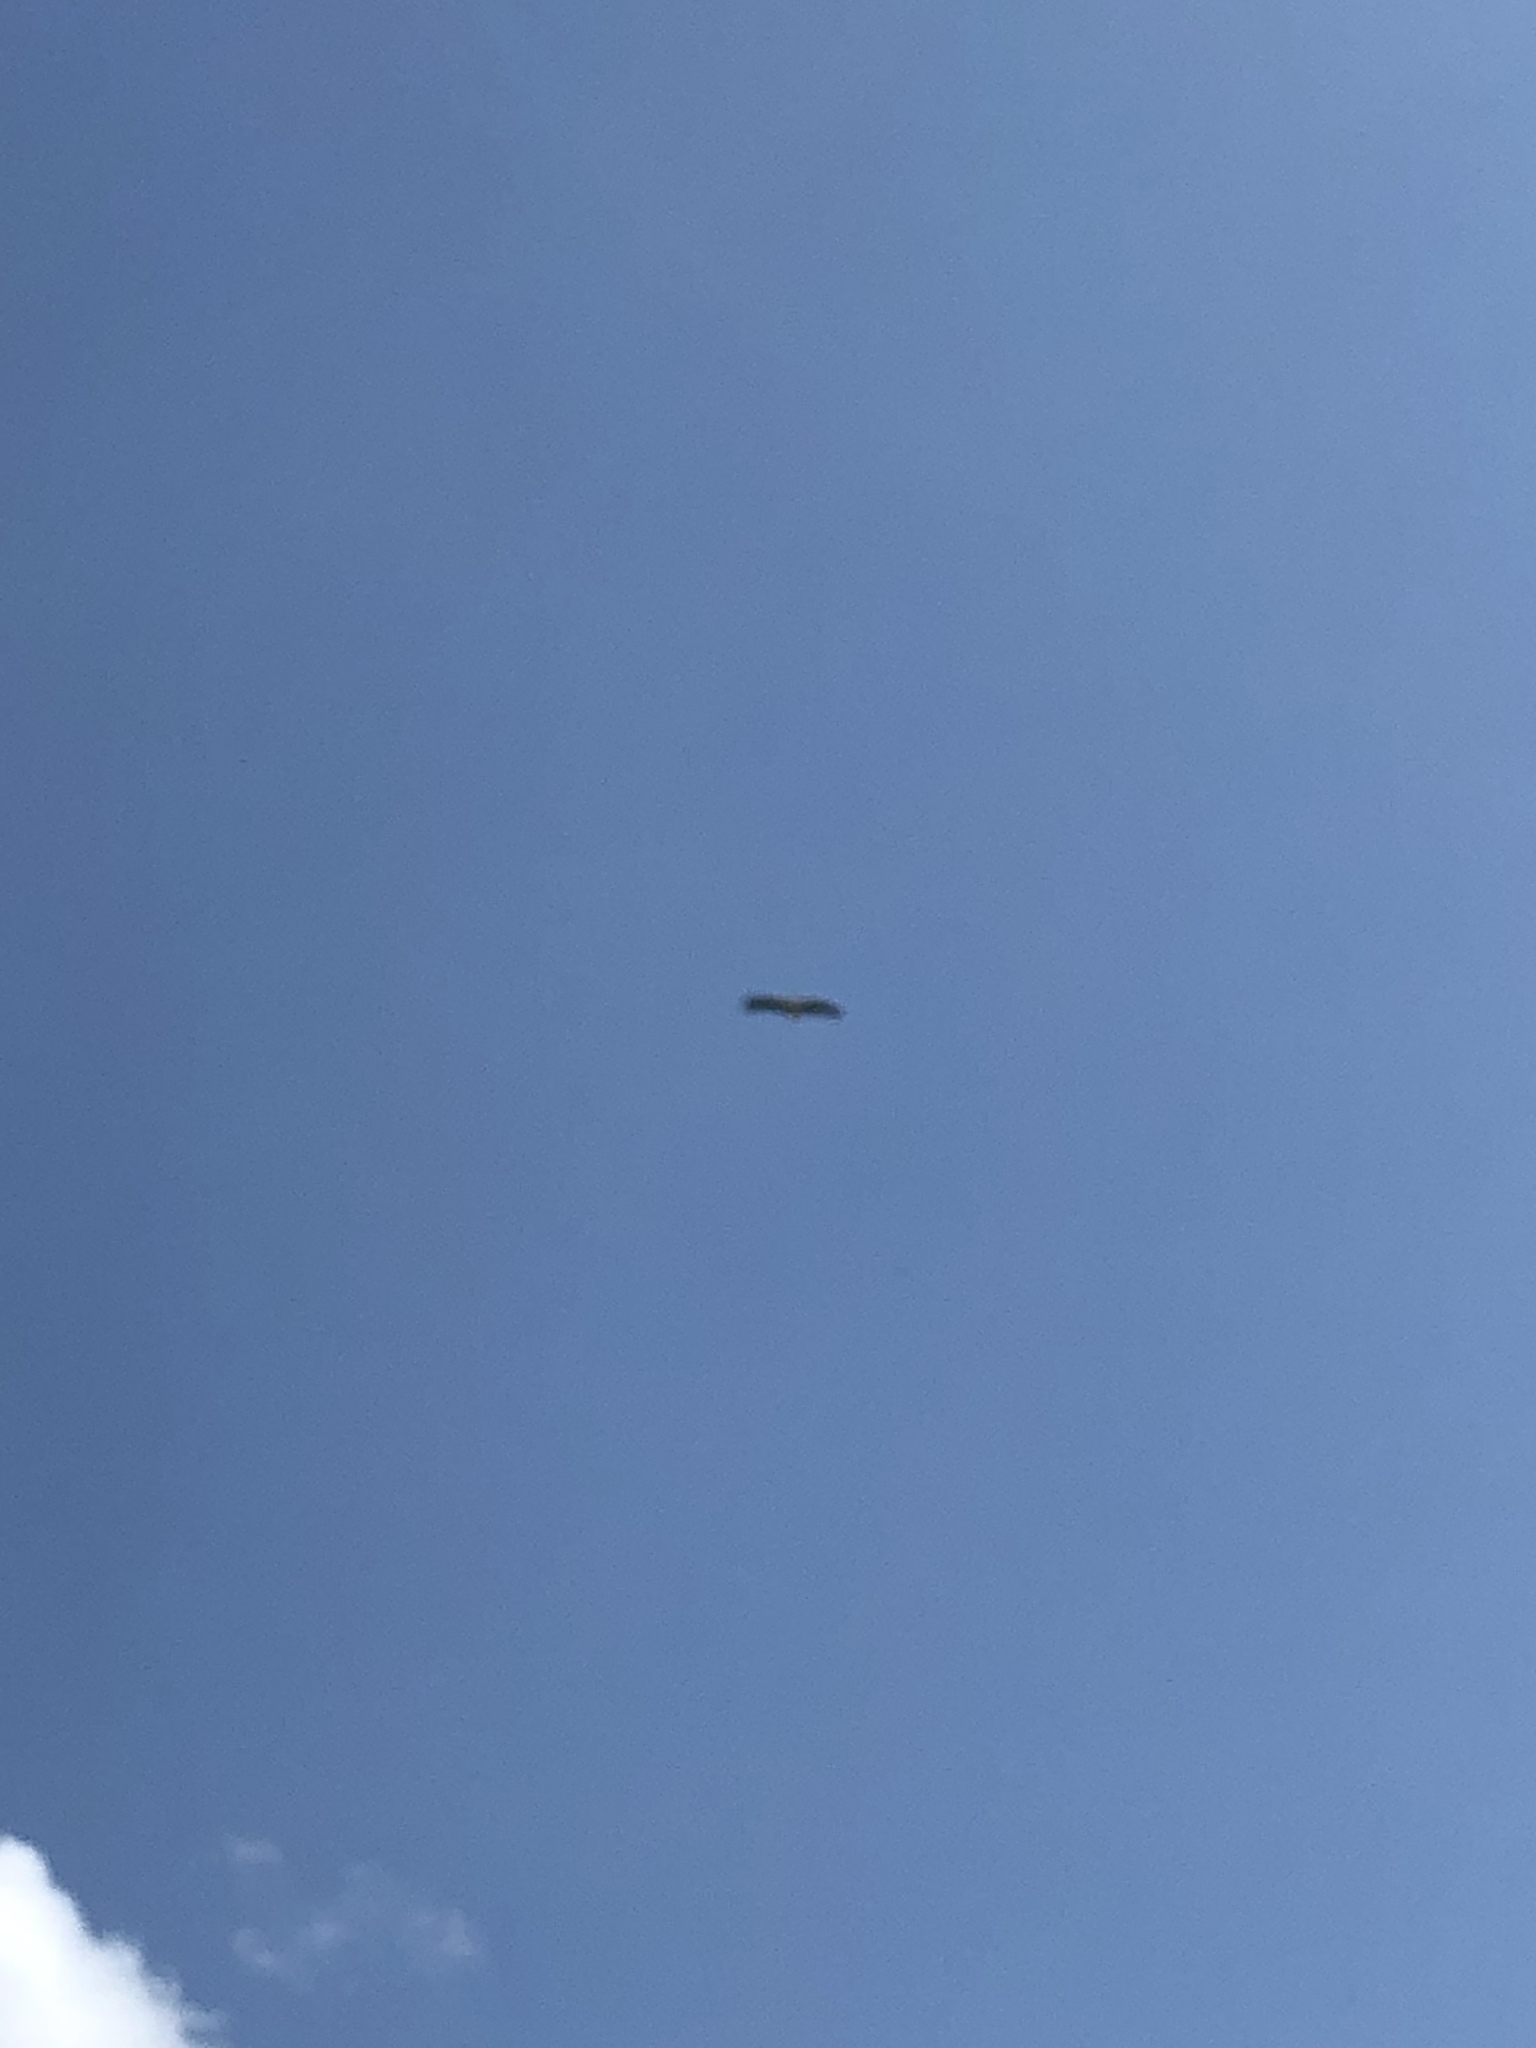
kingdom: Animalia
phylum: Chordata
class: Aves
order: Ciconiiformes
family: Ciconiidae
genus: Ciconia
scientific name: Ciconia ciconia
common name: White stork
